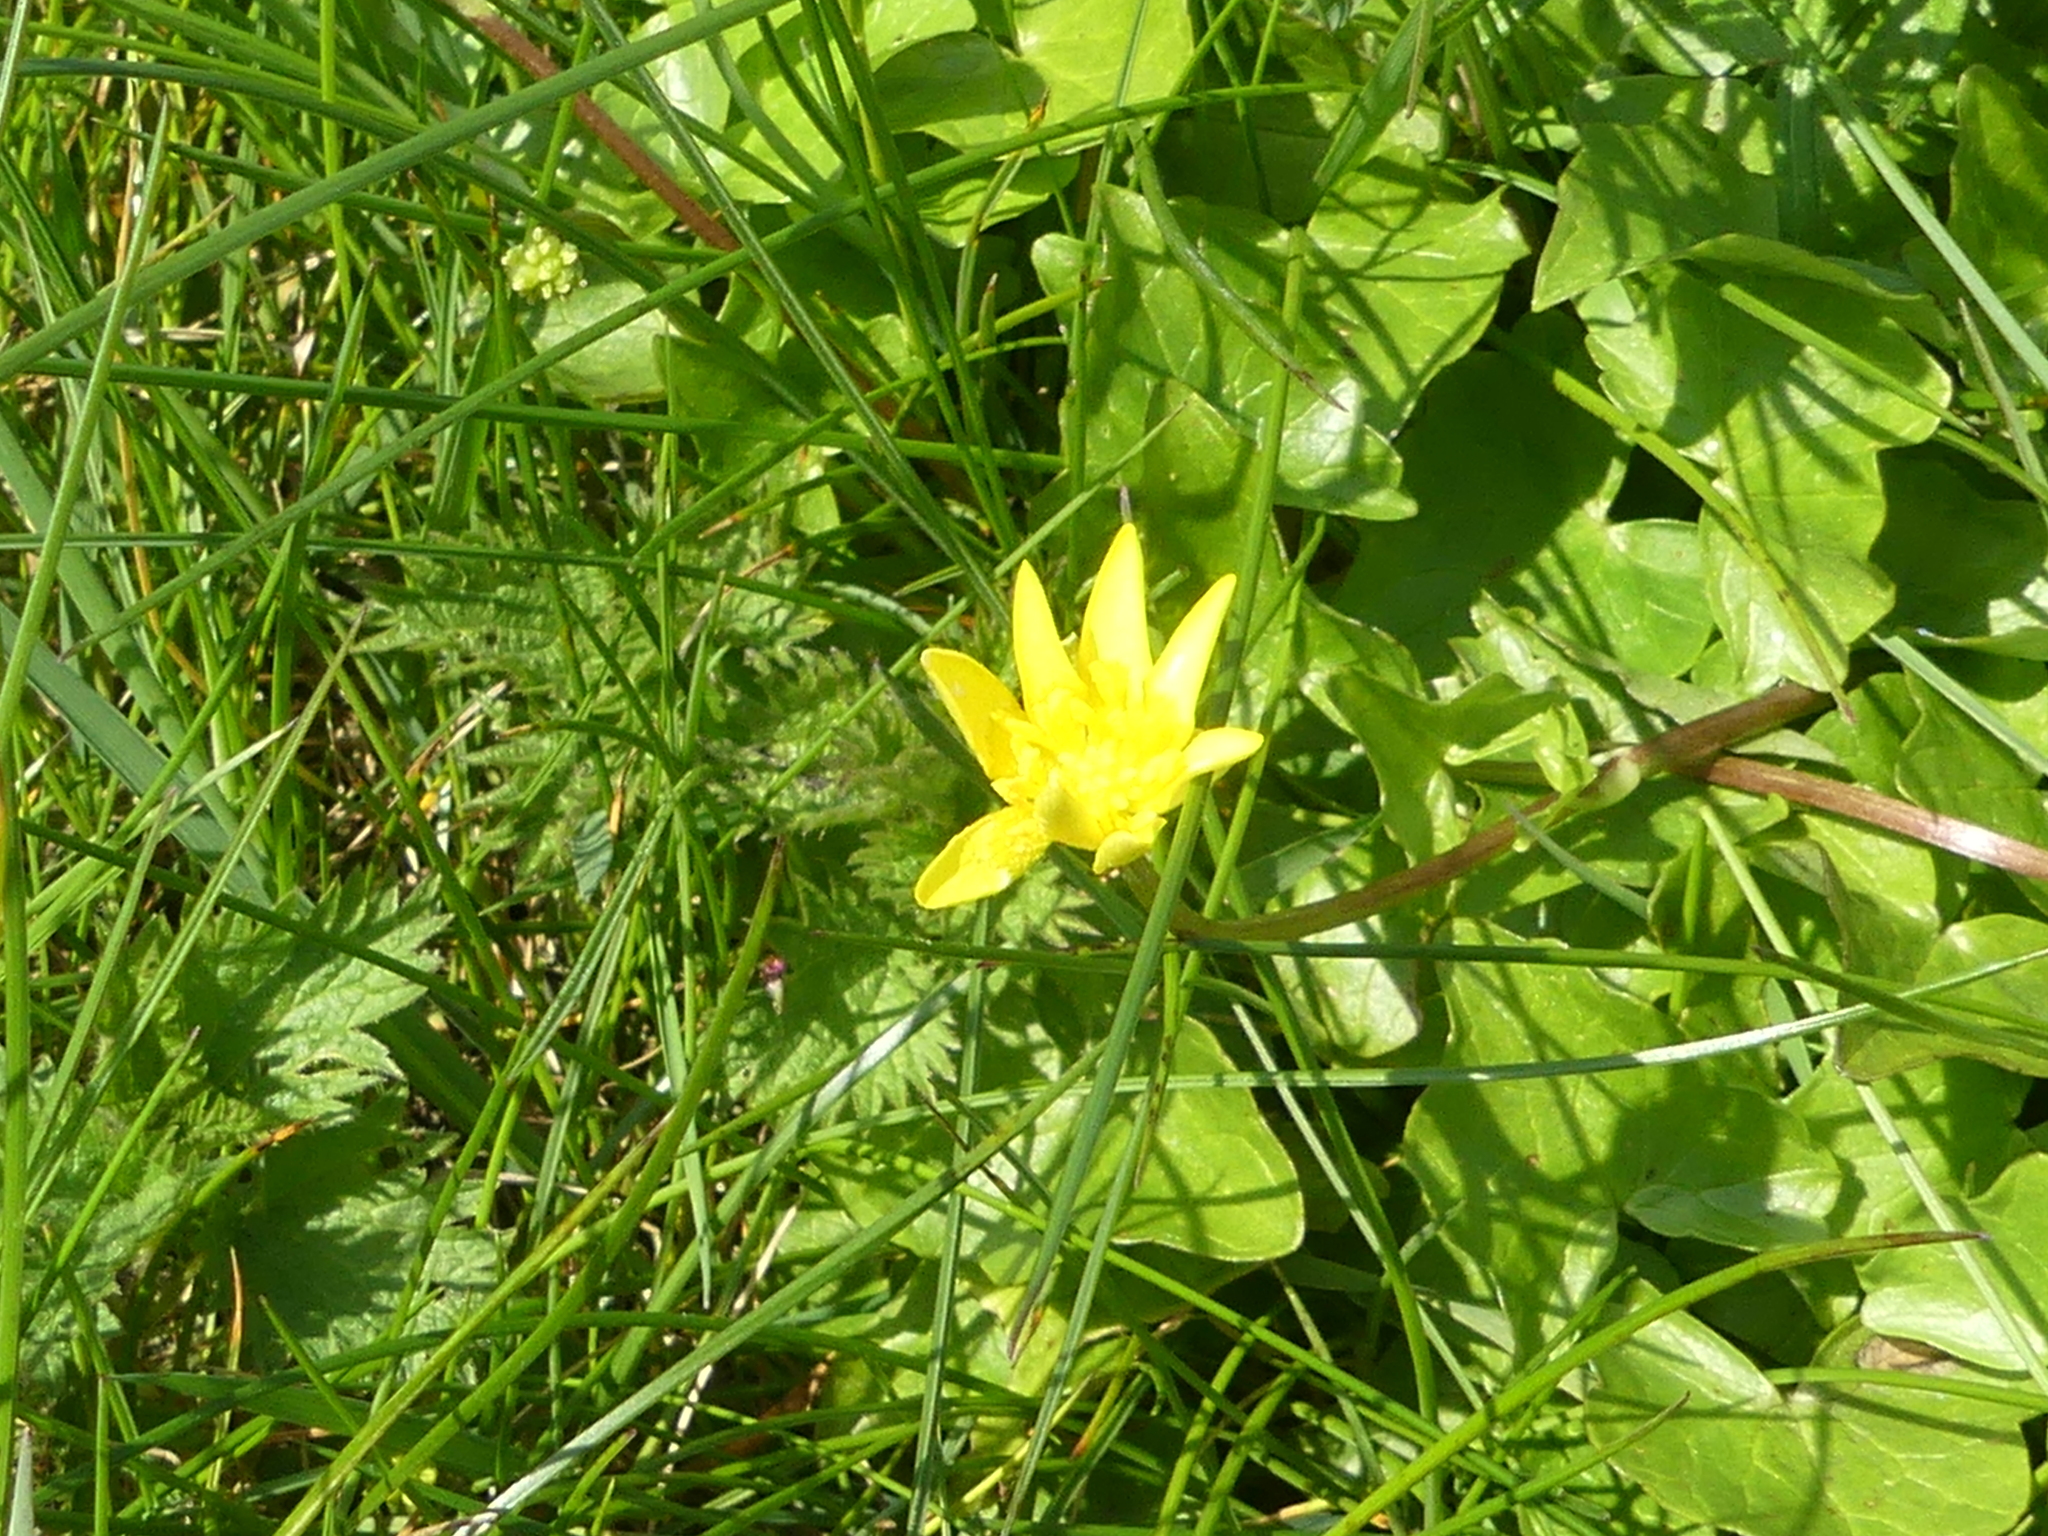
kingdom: Plantae
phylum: Tracheophyta
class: Magnoliopsida
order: Ranunculales
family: Ranunculaceae
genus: Ficaria
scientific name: Ficaria verna
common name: Lesser celandine
